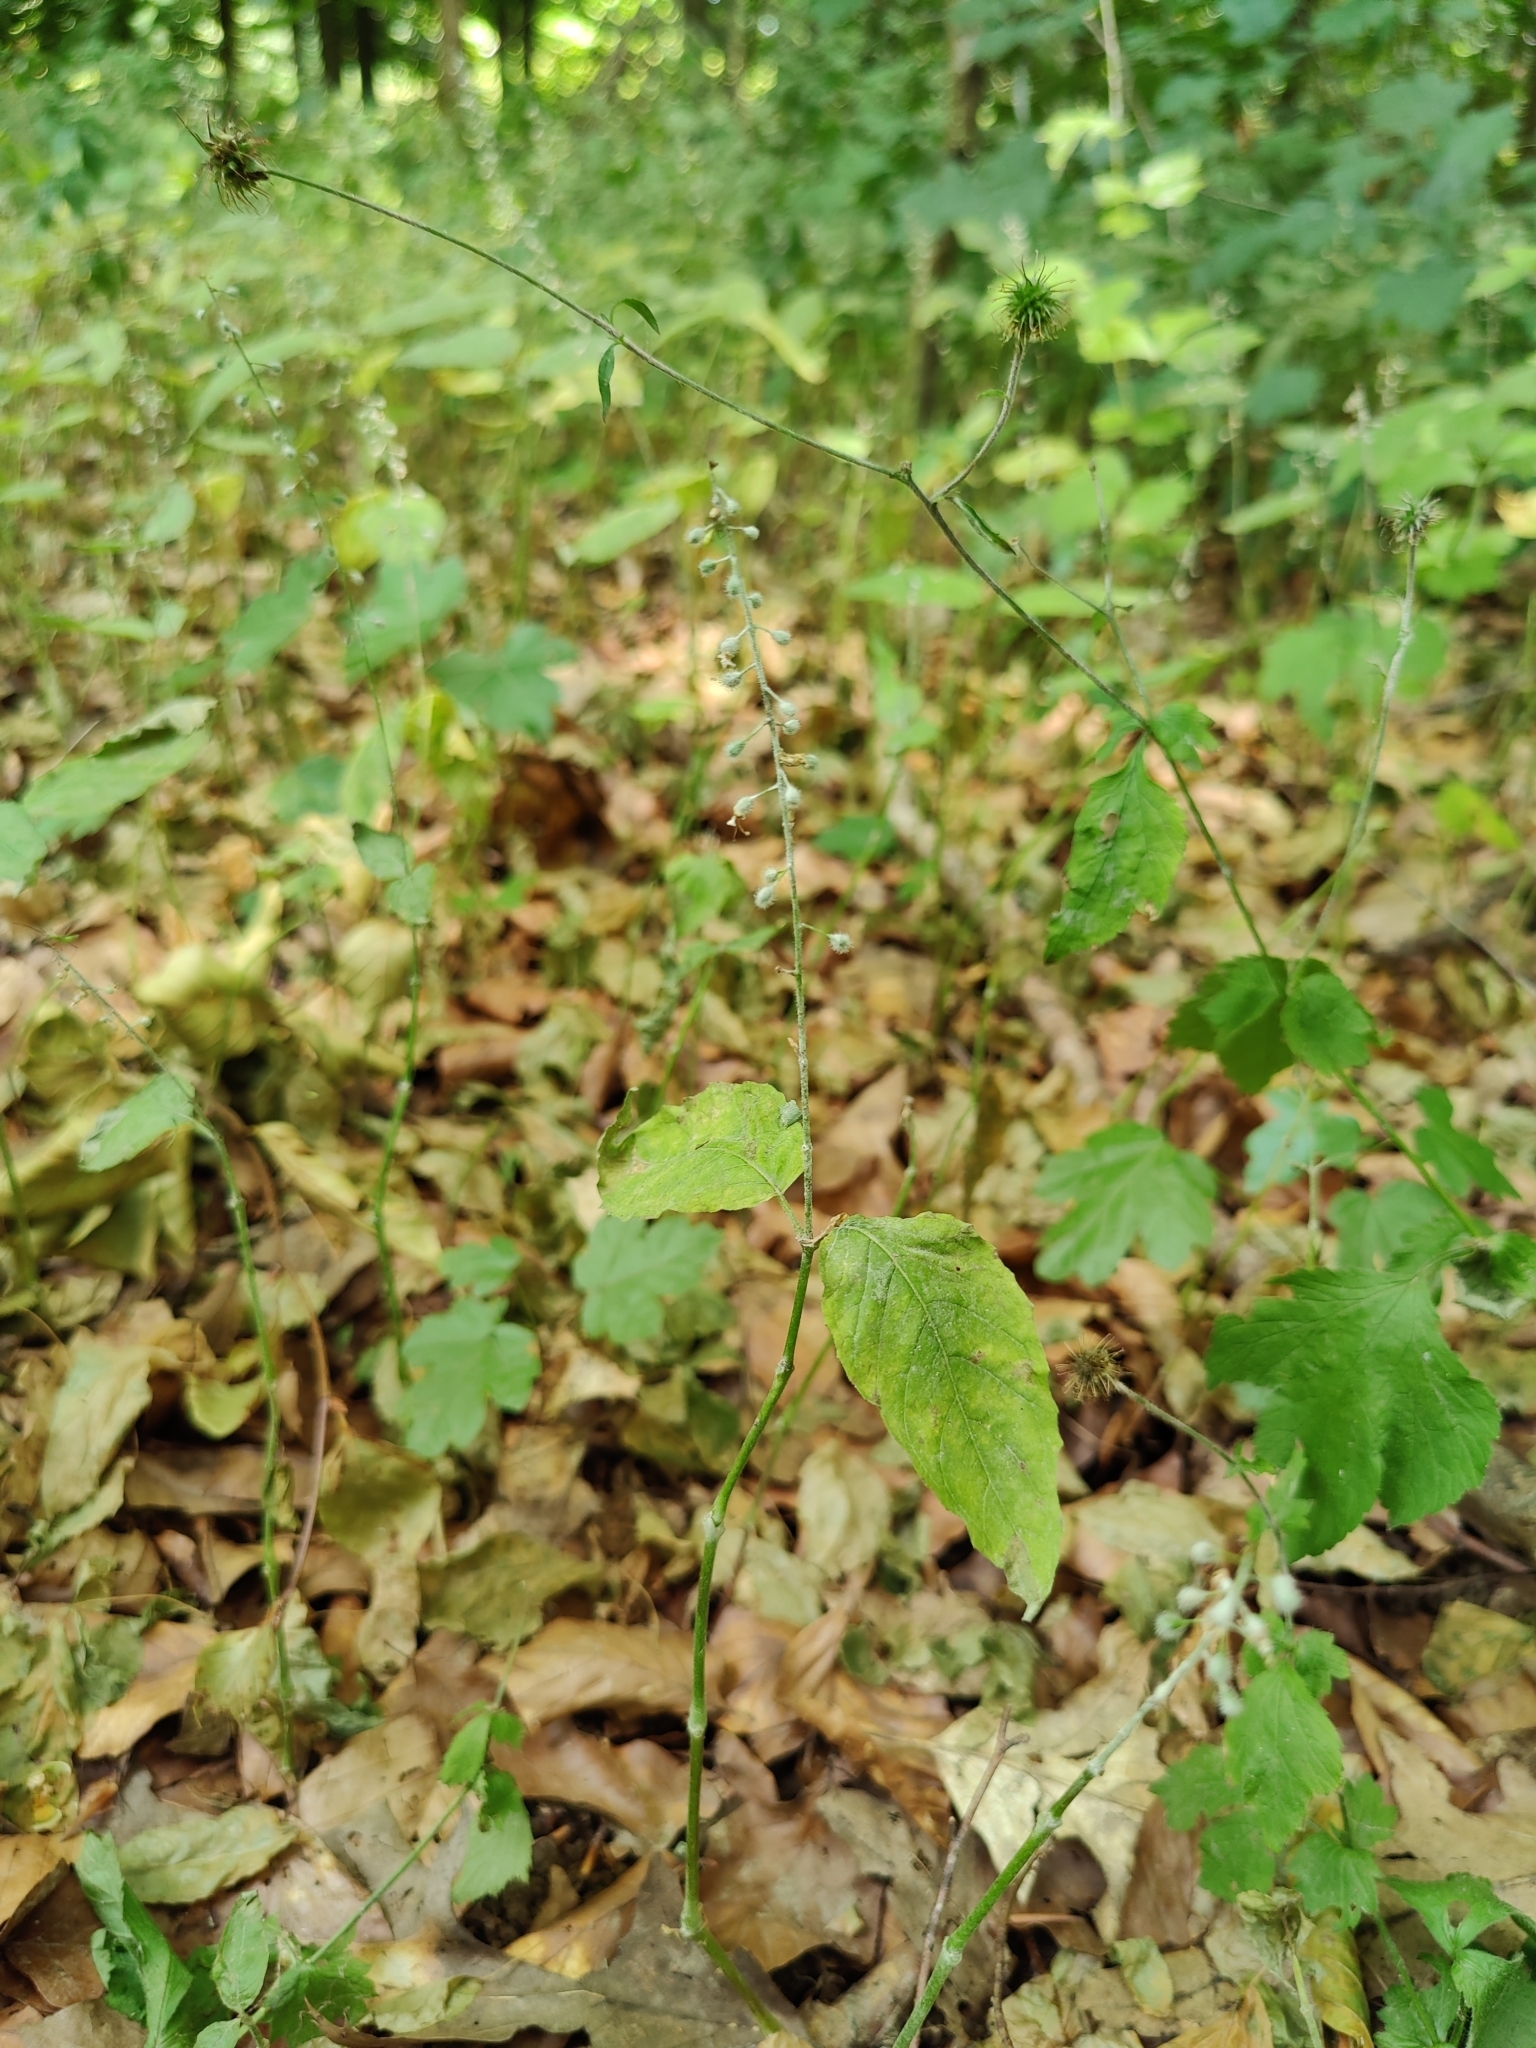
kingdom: Plantae
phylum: Tracheophyta
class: Magnoliopsida
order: Myrtales
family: Onagraceae
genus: Circaea
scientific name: Circaea lutetiana
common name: Enchanter's-nightshade
